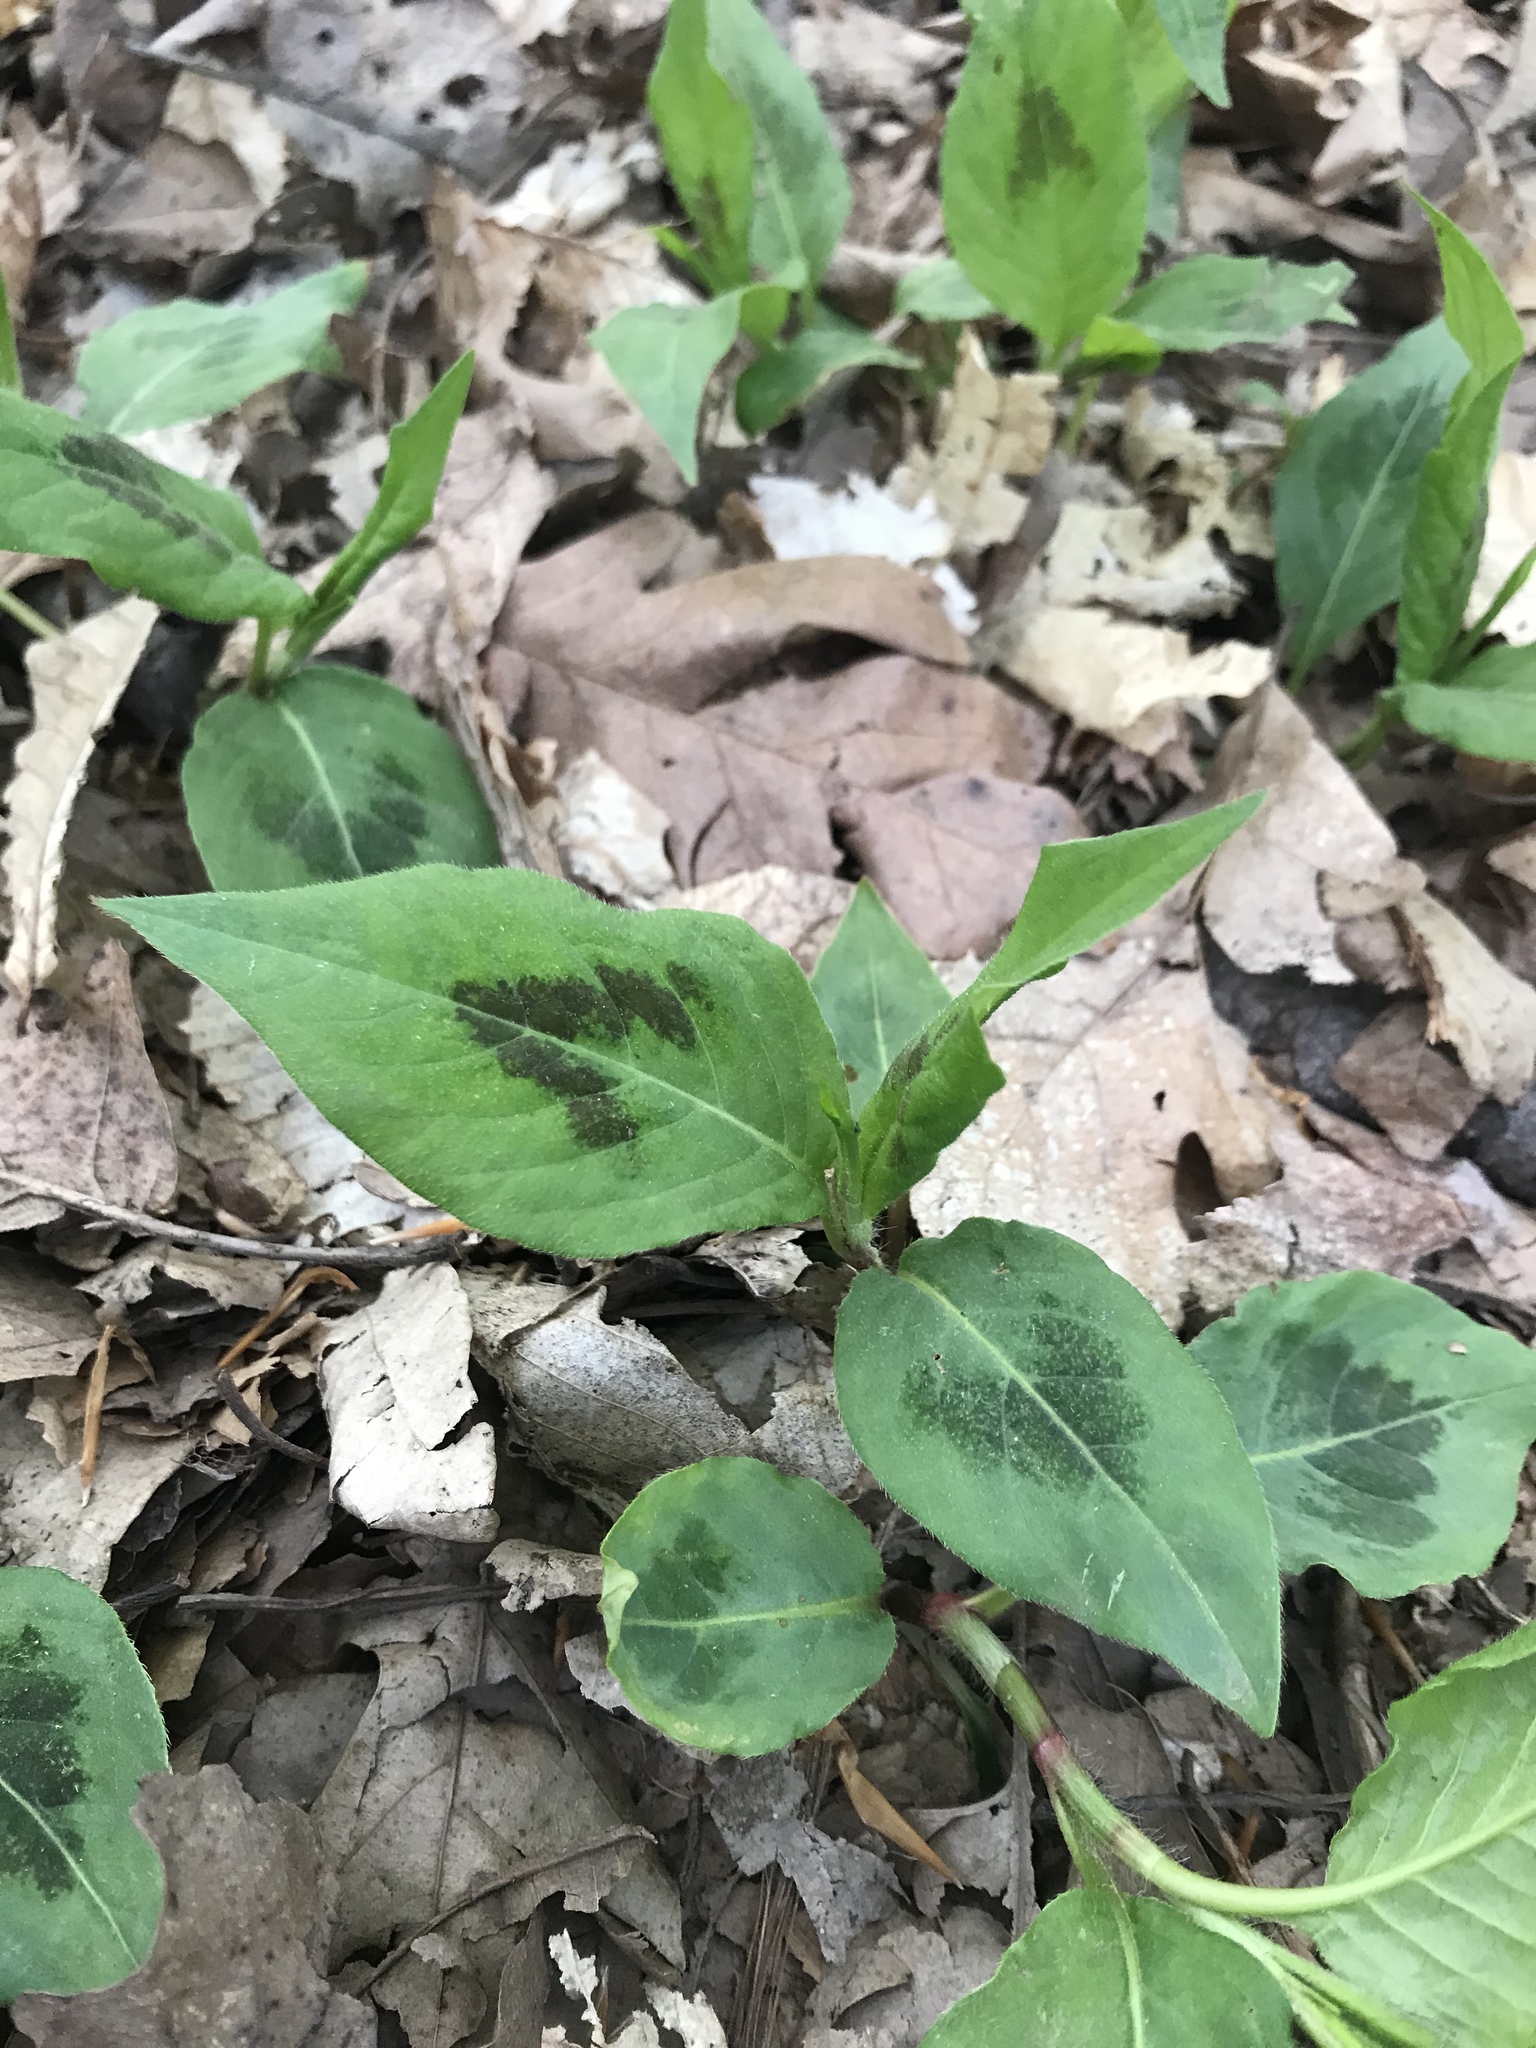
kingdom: Plantae
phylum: Tracheophyta
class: Magnoliopsida
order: Caryophyllales
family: Polygonaceae
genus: Persicaria
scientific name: Persicaria virginiana
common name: Jumpseed
